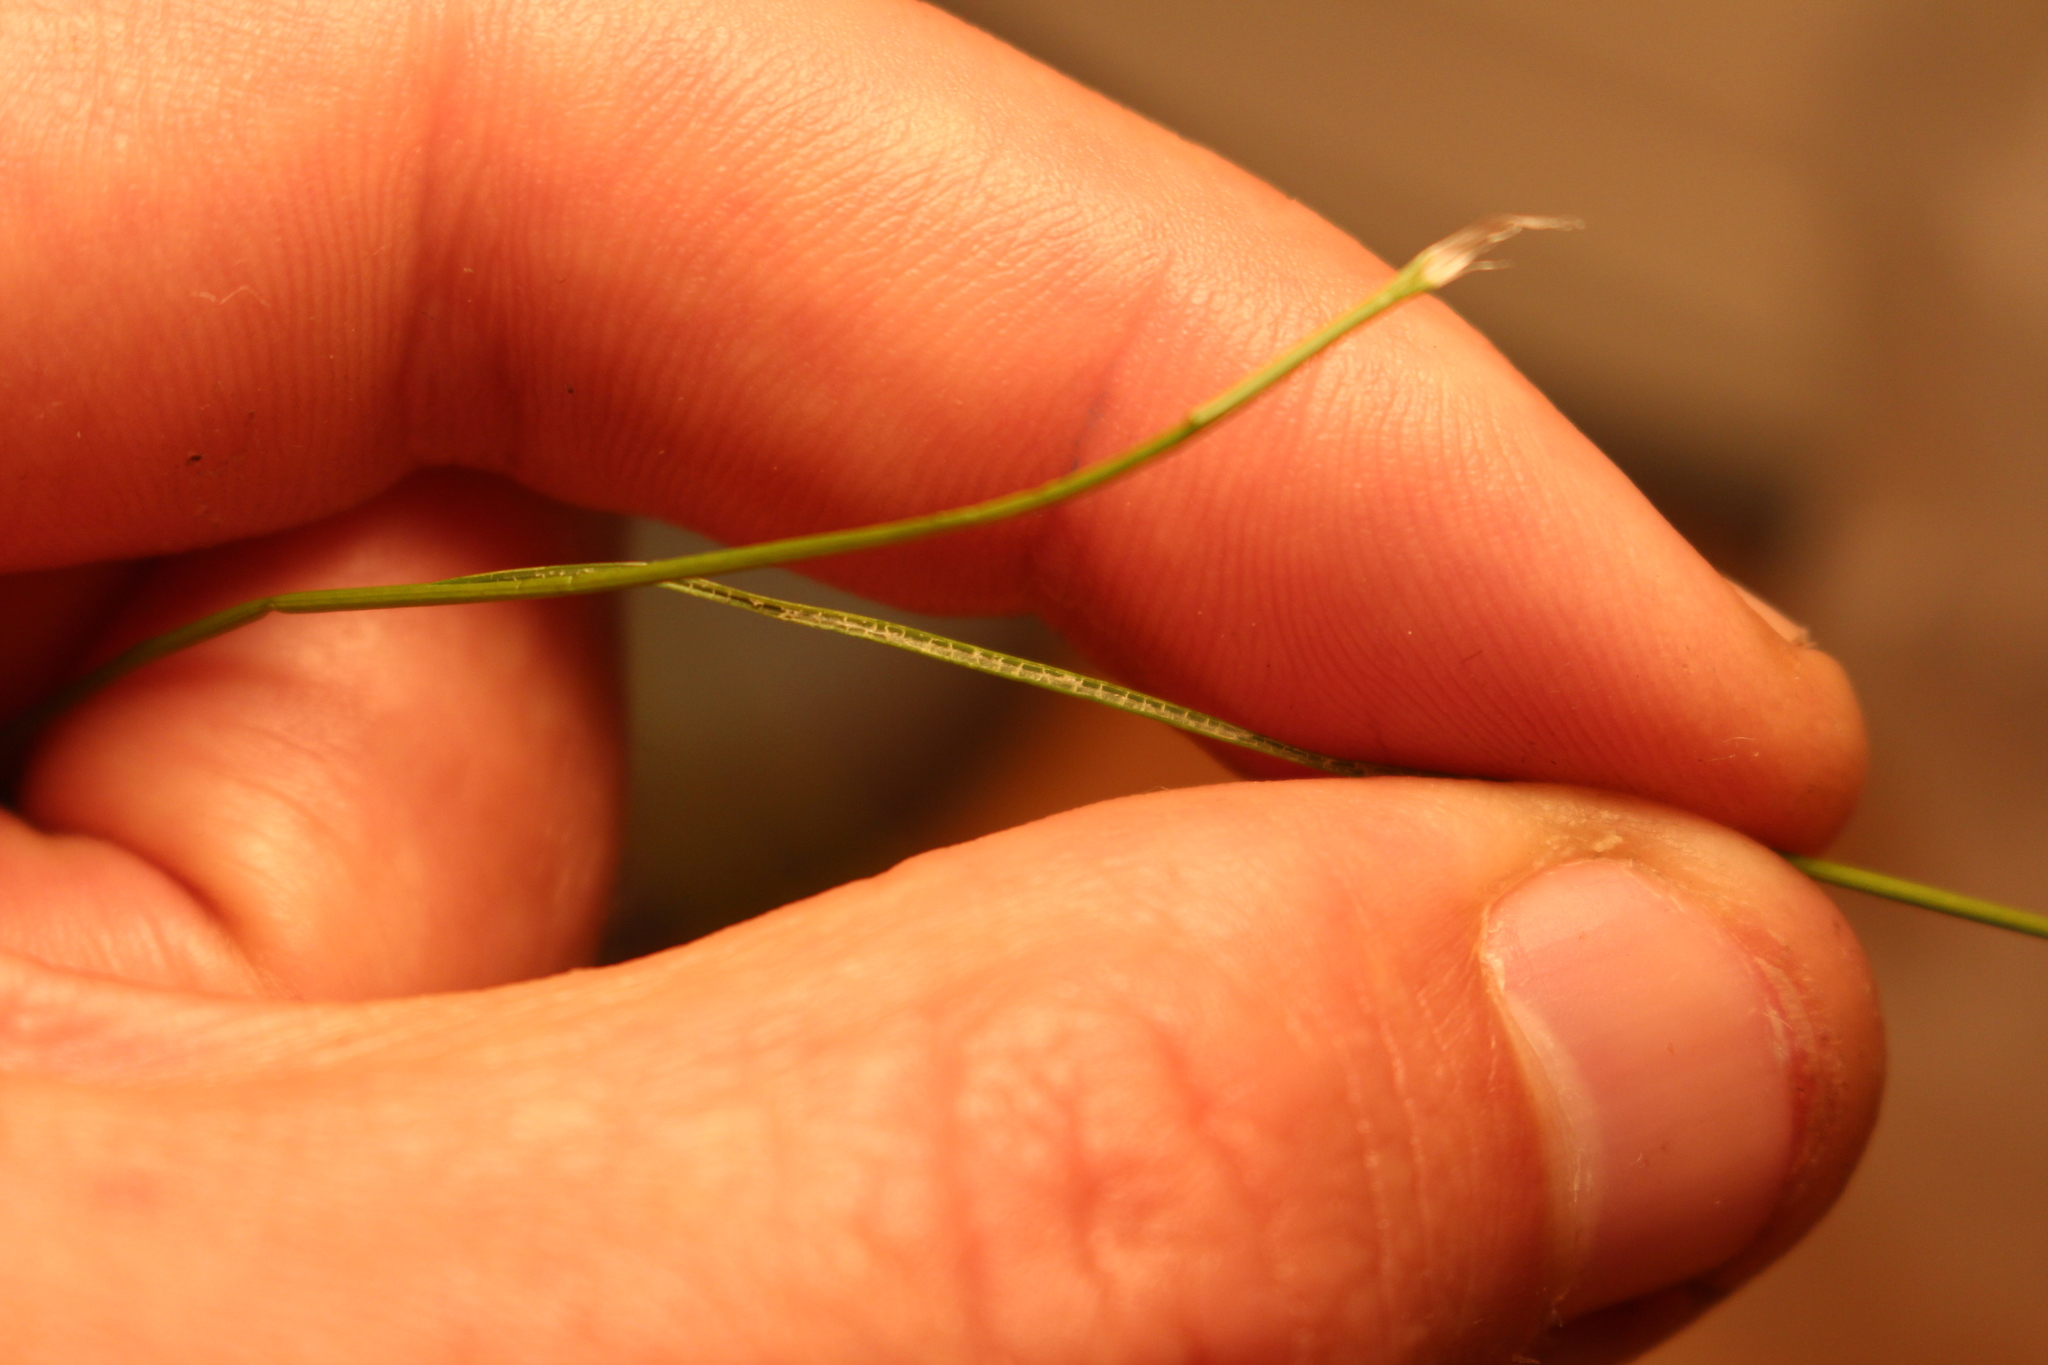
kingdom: Plantae
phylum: Tracheophyta
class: Liliopsida
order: Poales
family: Cyperaceae
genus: Eleocharis
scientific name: Eleocharis acuta
